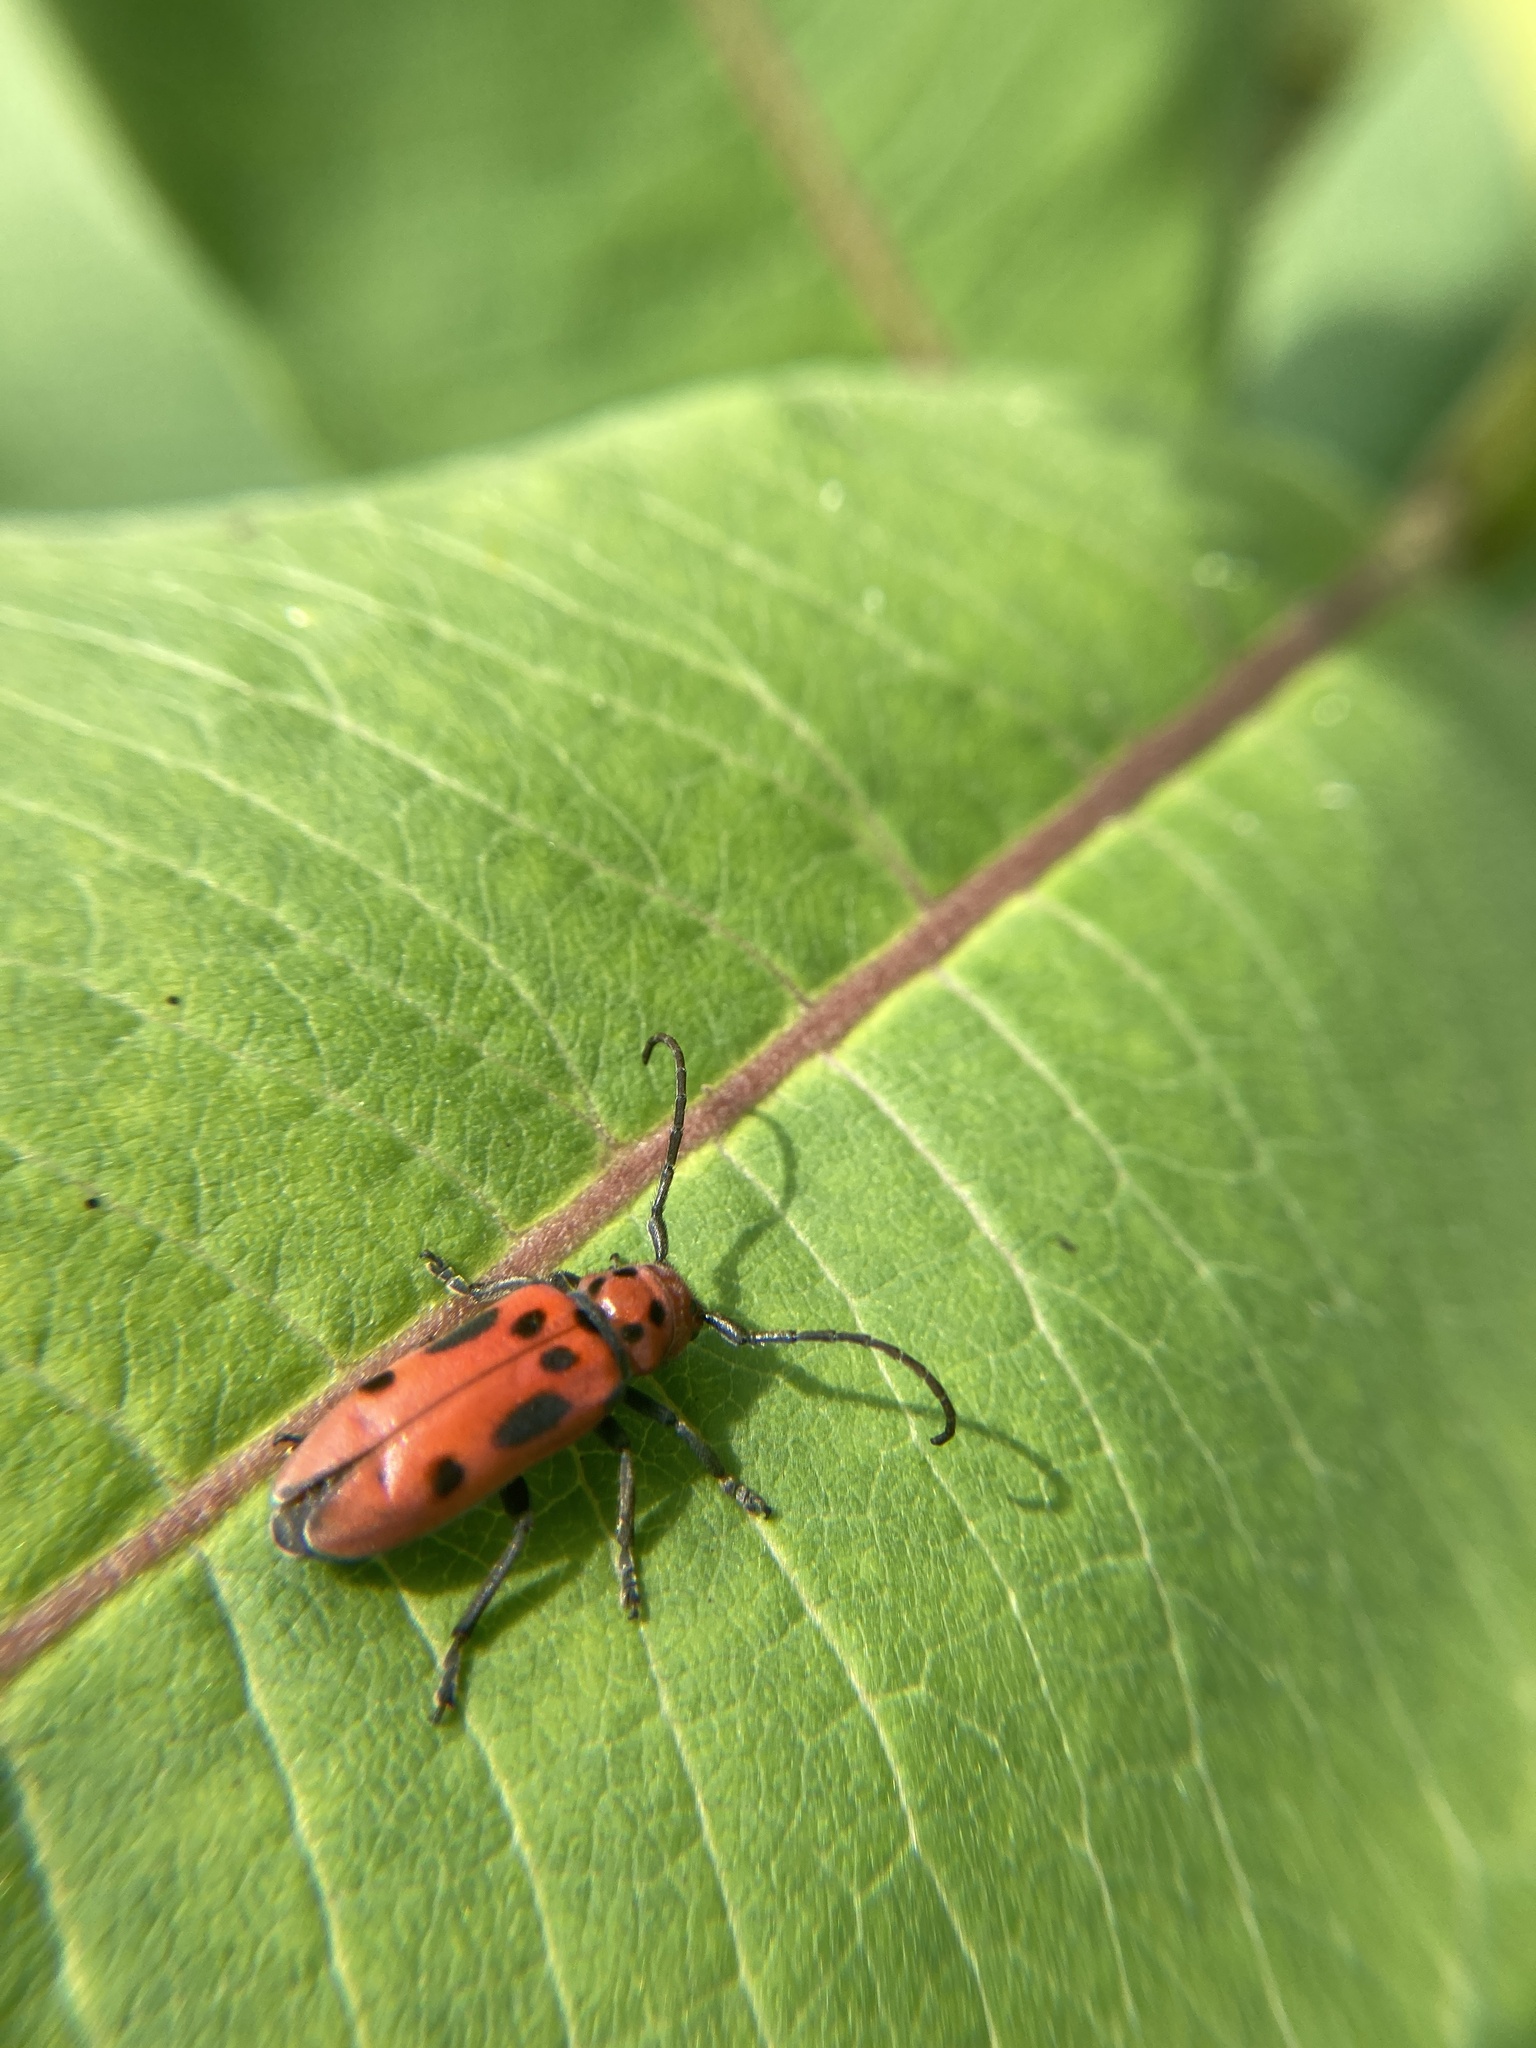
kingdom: Animalia
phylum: Arthropoda
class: Insecta
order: Coleoptera
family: Cerambycidae
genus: Tetraopes
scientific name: Tetraopes tetrophthalmus
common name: Red milkweed beetle
